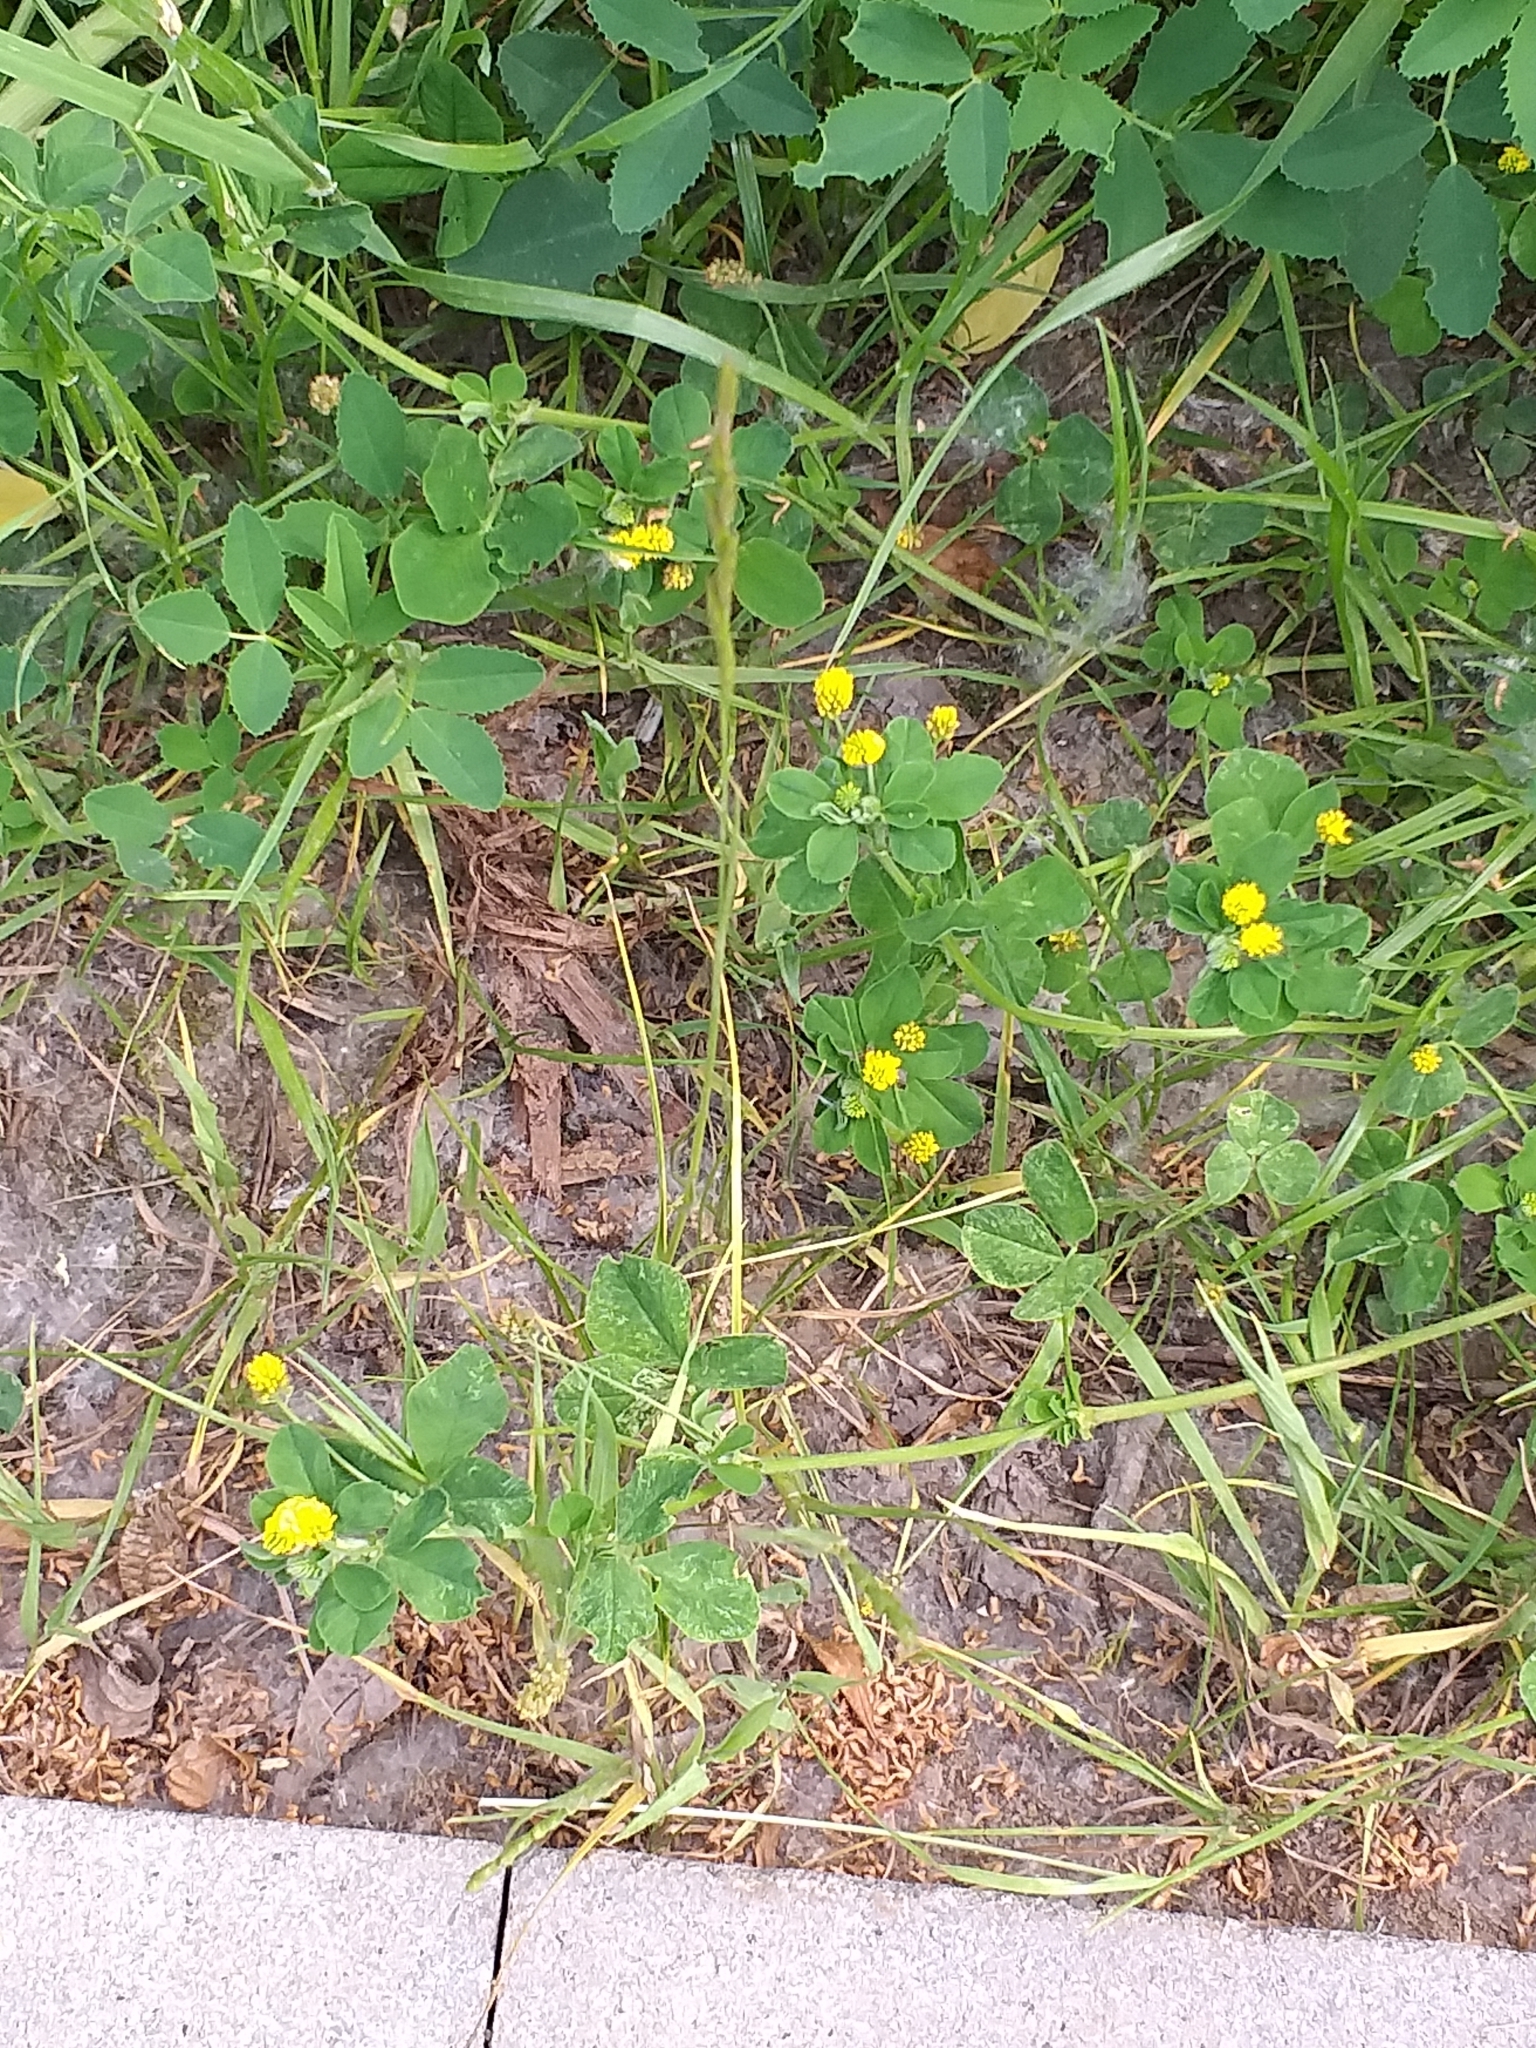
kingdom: Plantae
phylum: Tracheophyta
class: Magnoliopsida
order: Fabales
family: Fabaceae
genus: Medicago
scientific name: Medicago lupulina
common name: Black medick
